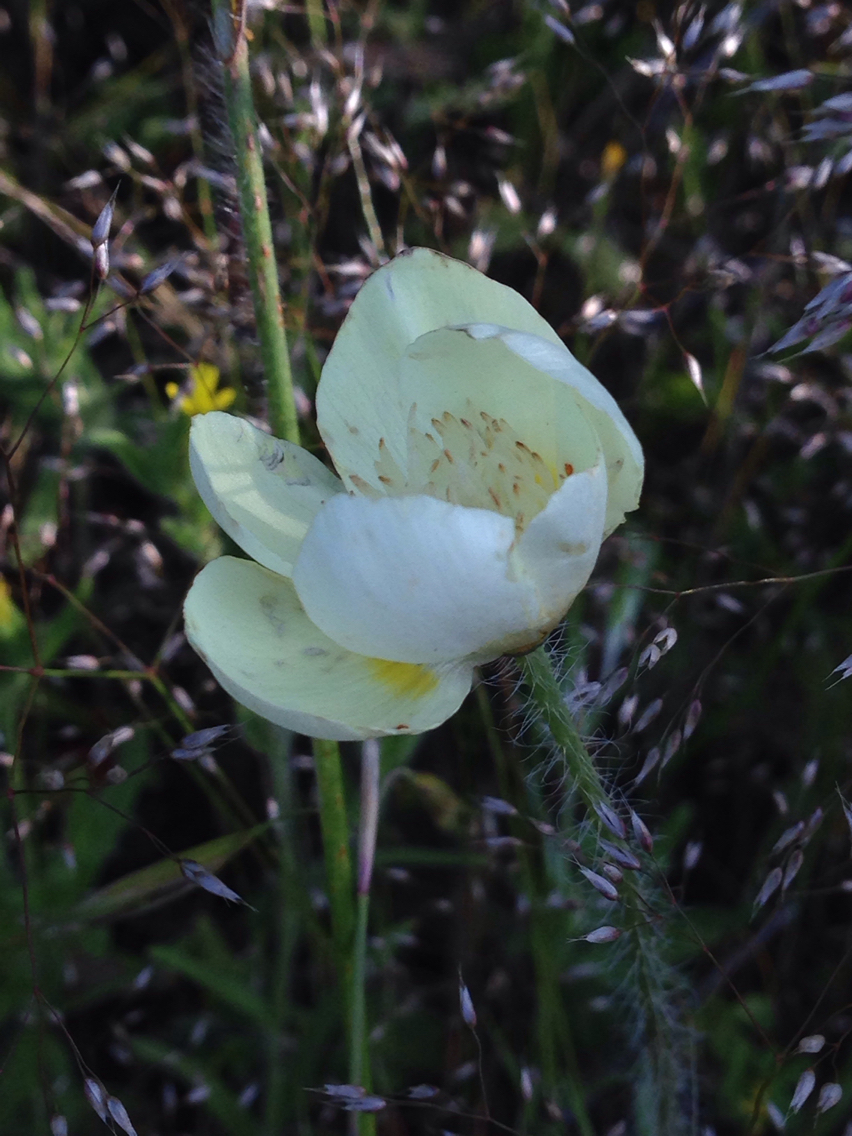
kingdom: Plantae
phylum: Tracheophyta
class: Magnoliopsida
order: Ranunculales
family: Papaveraceae
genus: Platystemon
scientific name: Platystemon californicus
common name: Cream-cups
